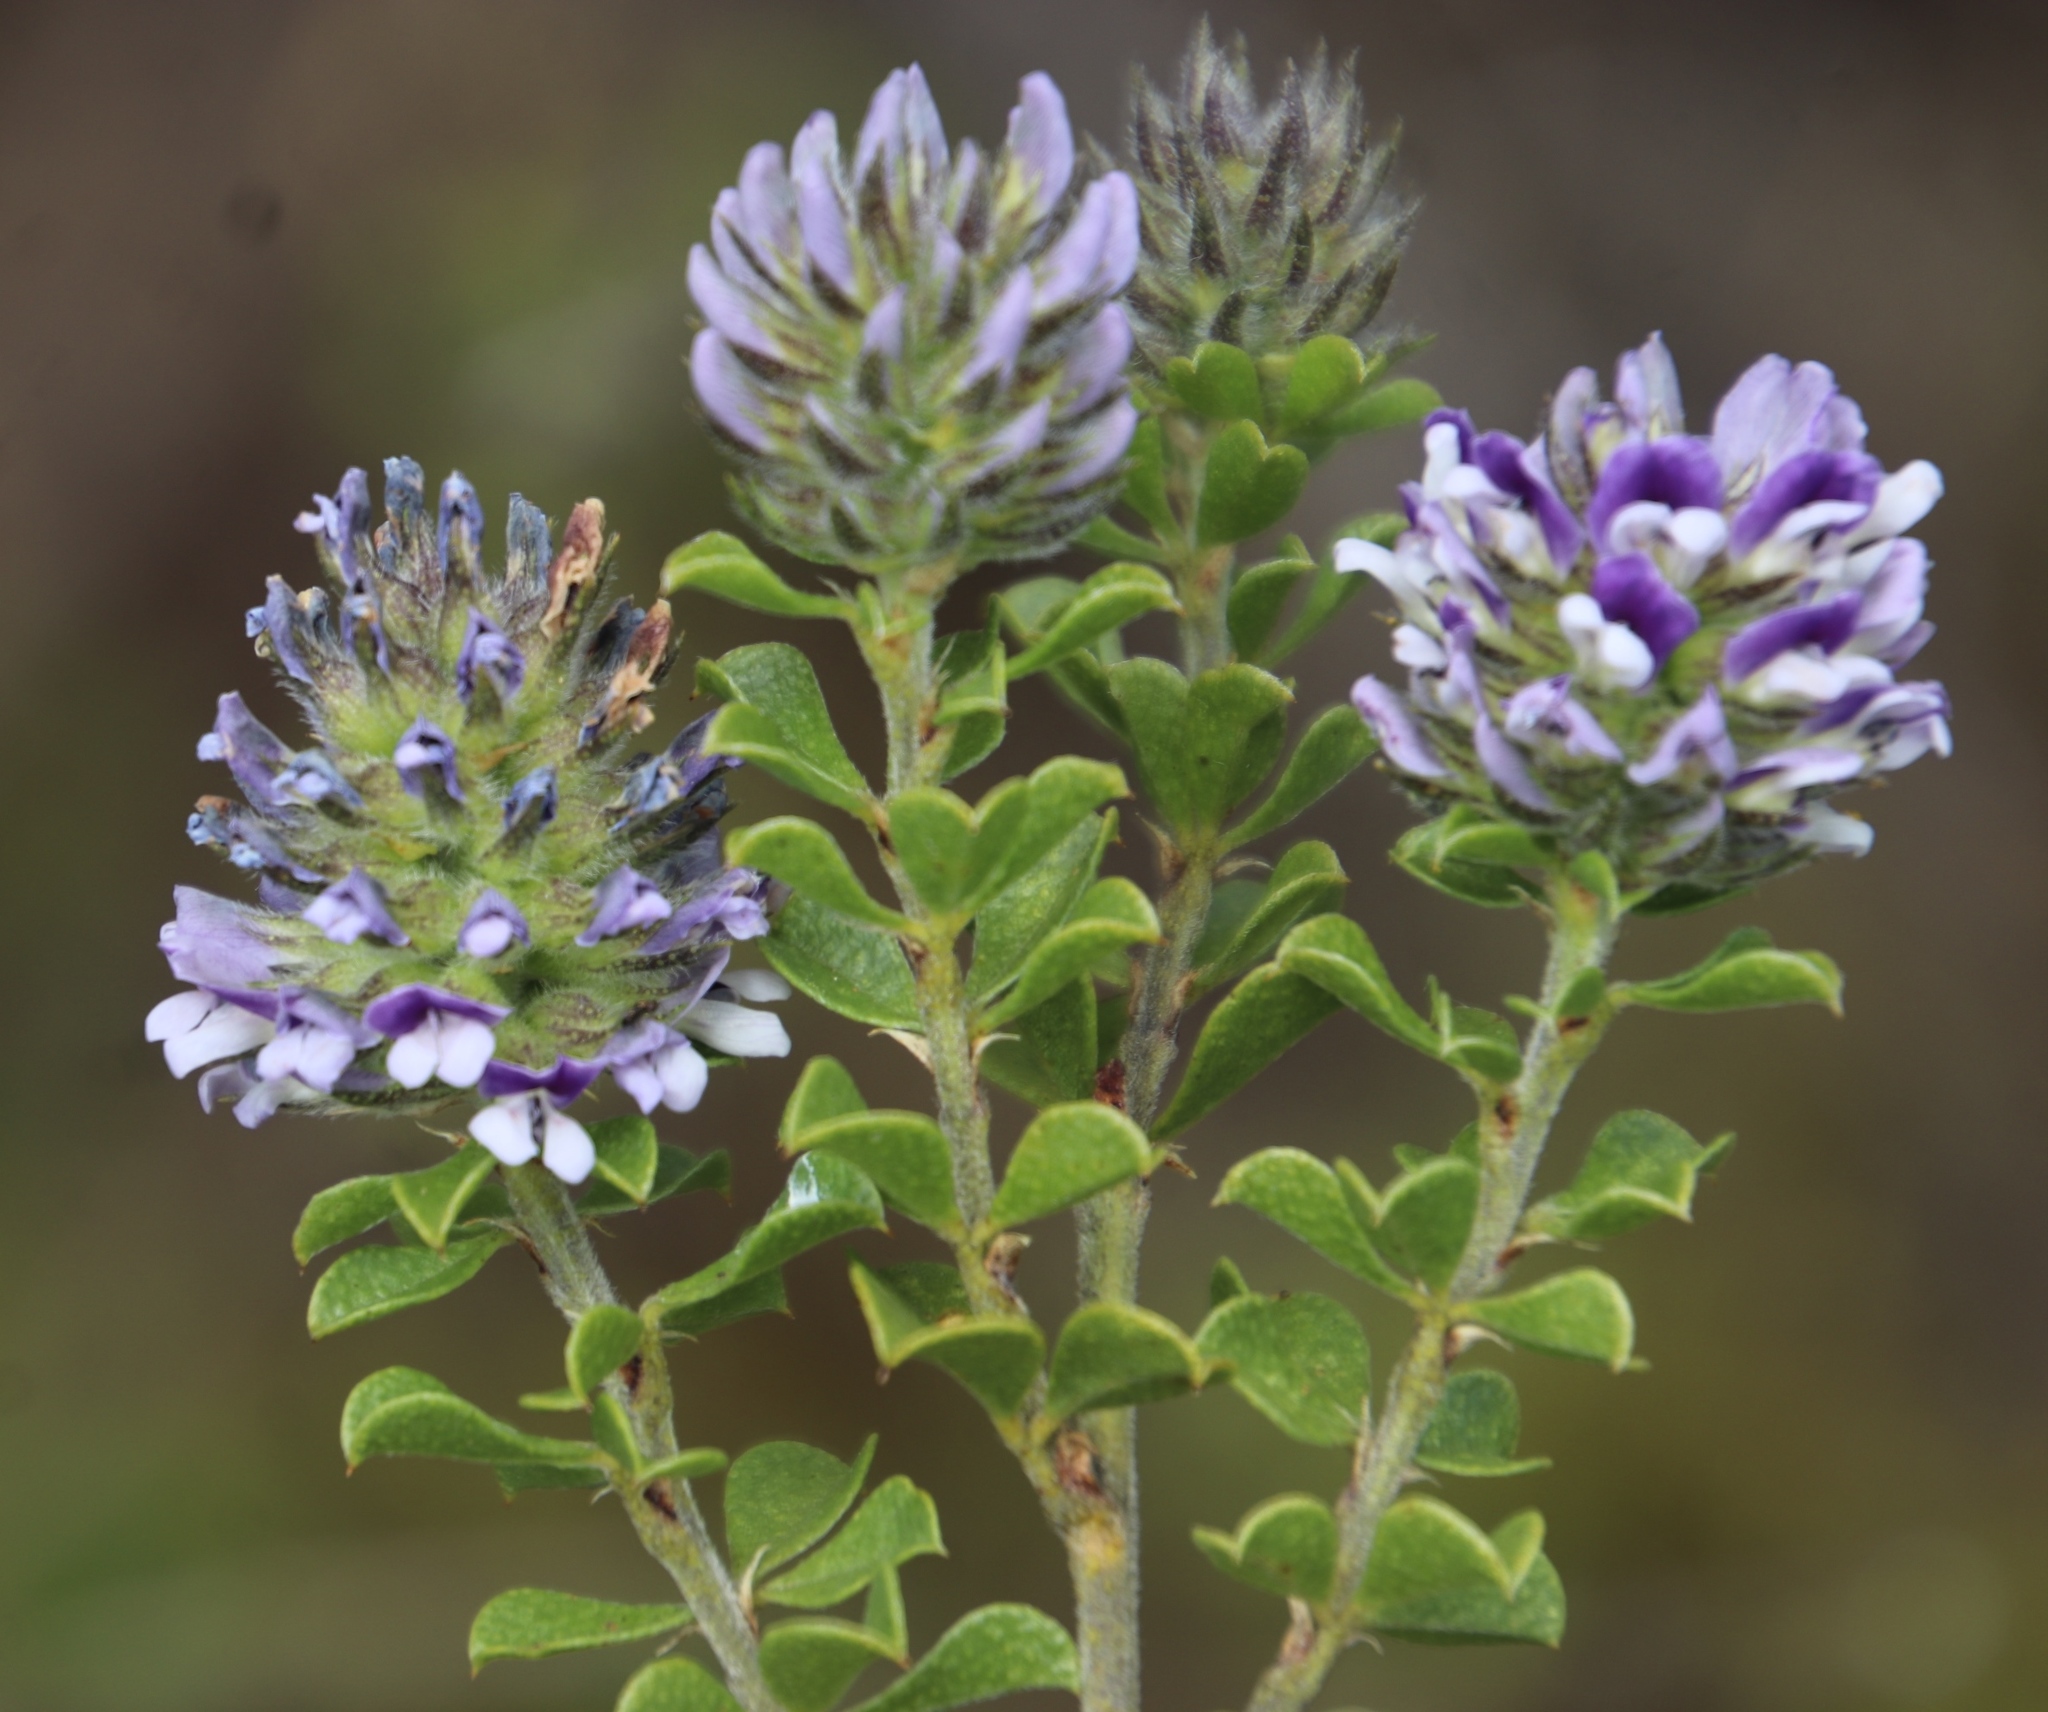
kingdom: Plantae
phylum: Tracheophyta
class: Magnoliopsida
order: Fabales
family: Fabaceae
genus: Psoralea
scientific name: Psoralea bracteolata
